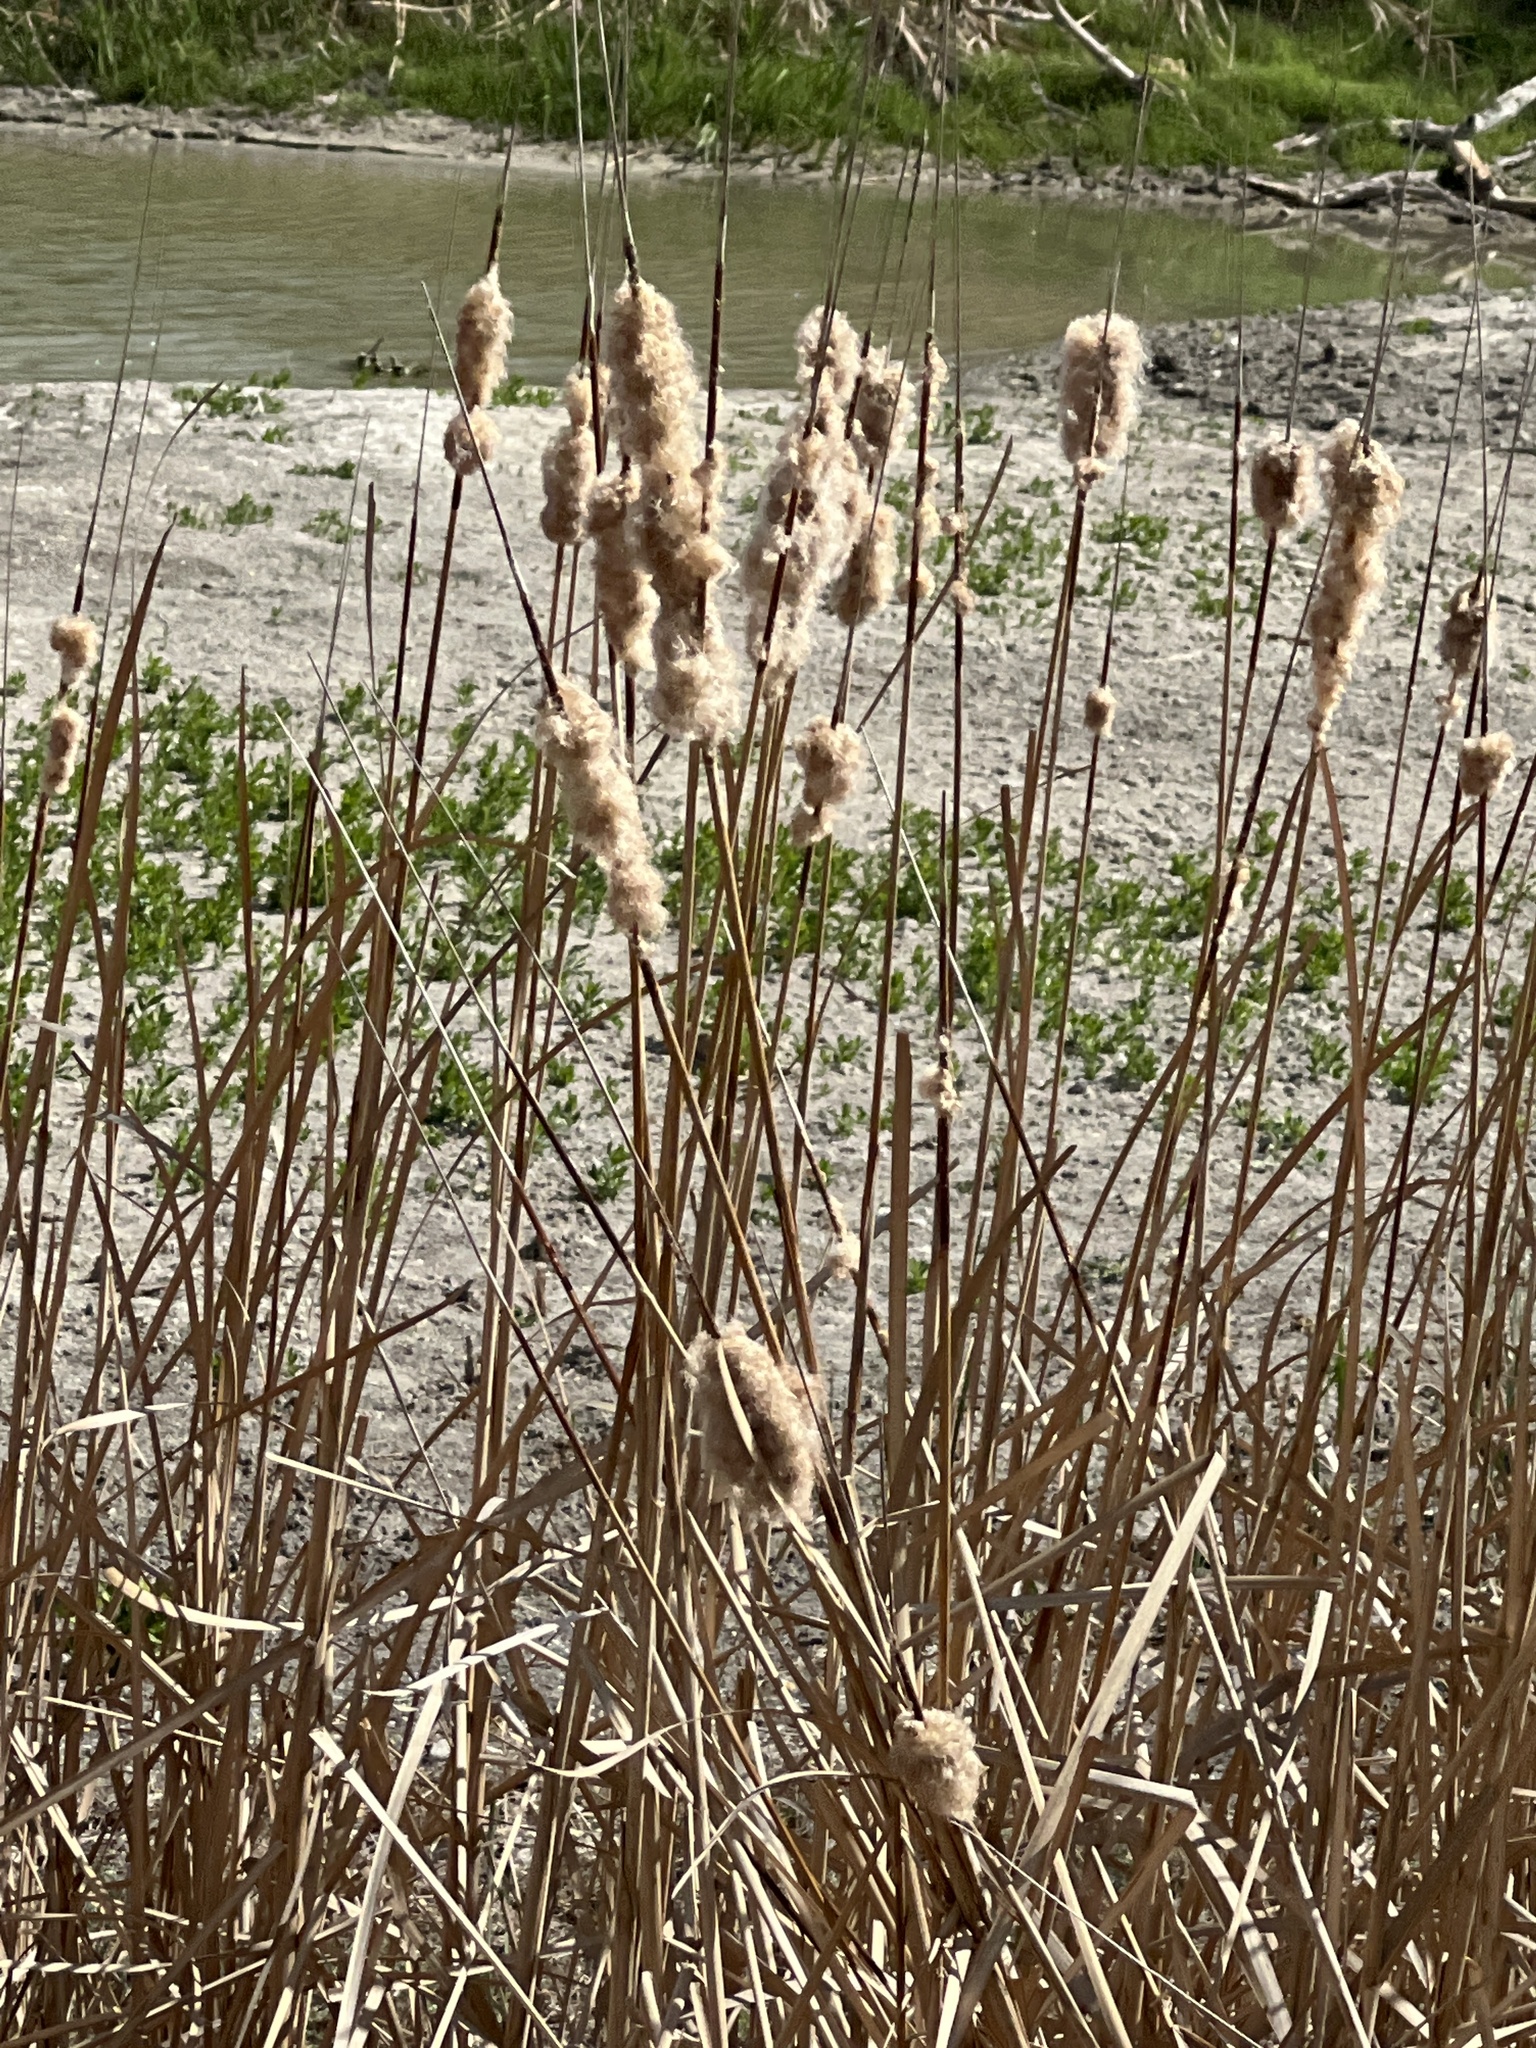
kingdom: Plantae
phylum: Tracheophyta
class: Liliopsida
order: Poales
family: Typhaceae
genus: Typha
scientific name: Typha domingensis
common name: Southern cattail
